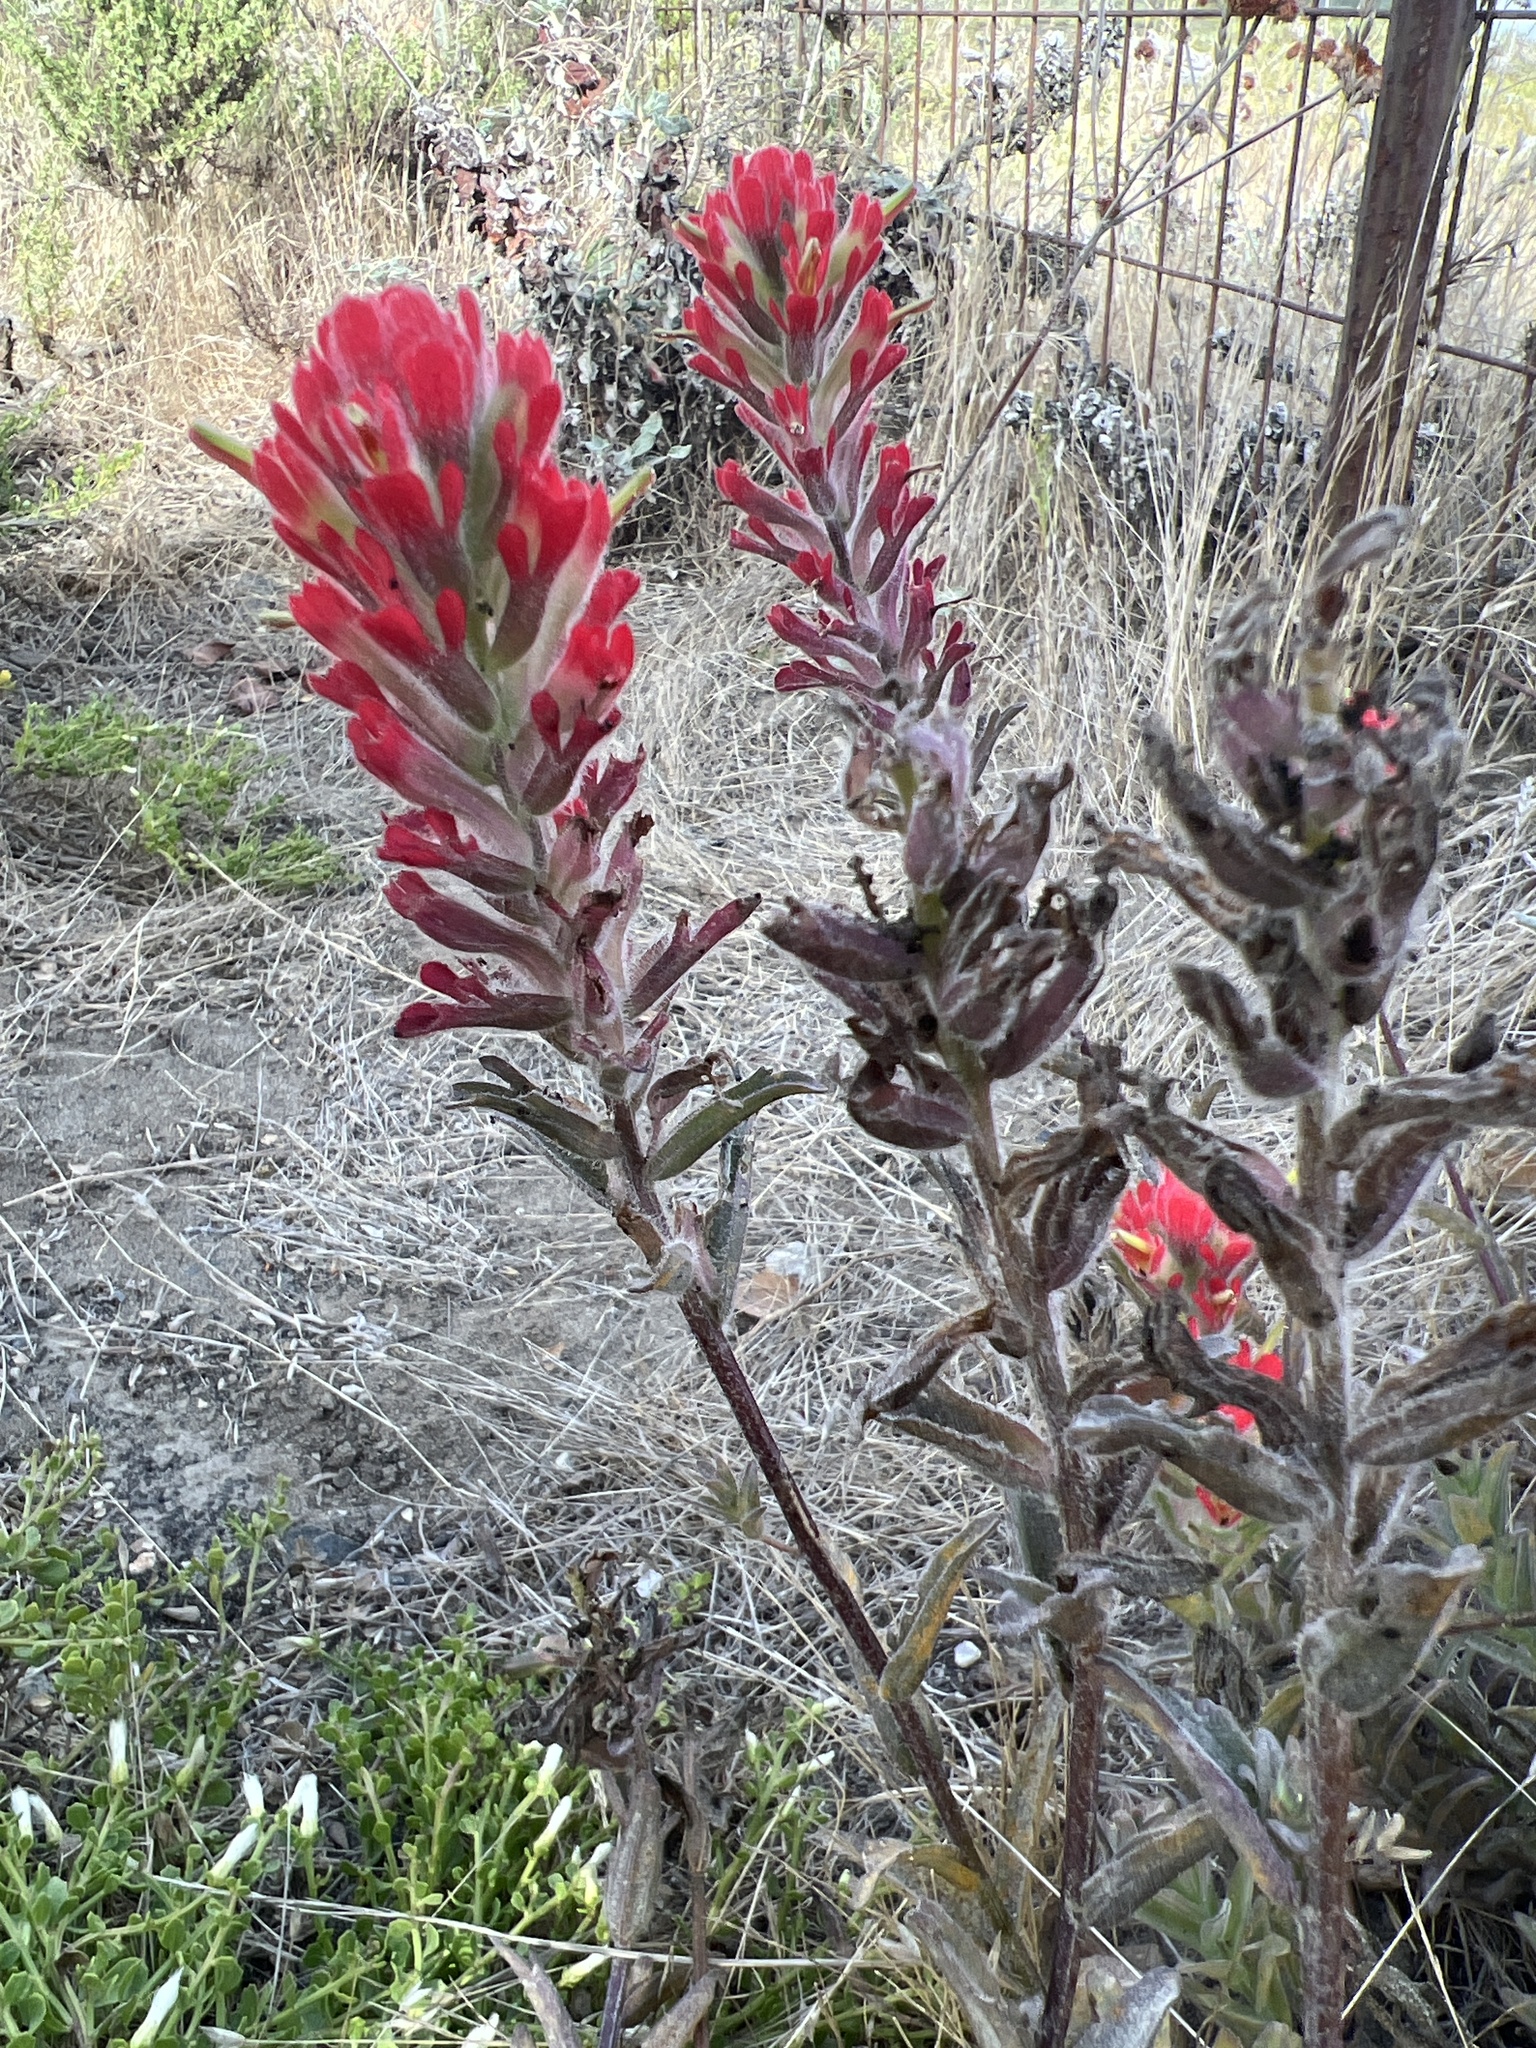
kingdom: Plantae
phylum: Tracheophyta
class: Magnoliopsida
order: Lamiales
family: Orobanchaceae
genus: Castilleja
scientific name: Castilleja affinis
